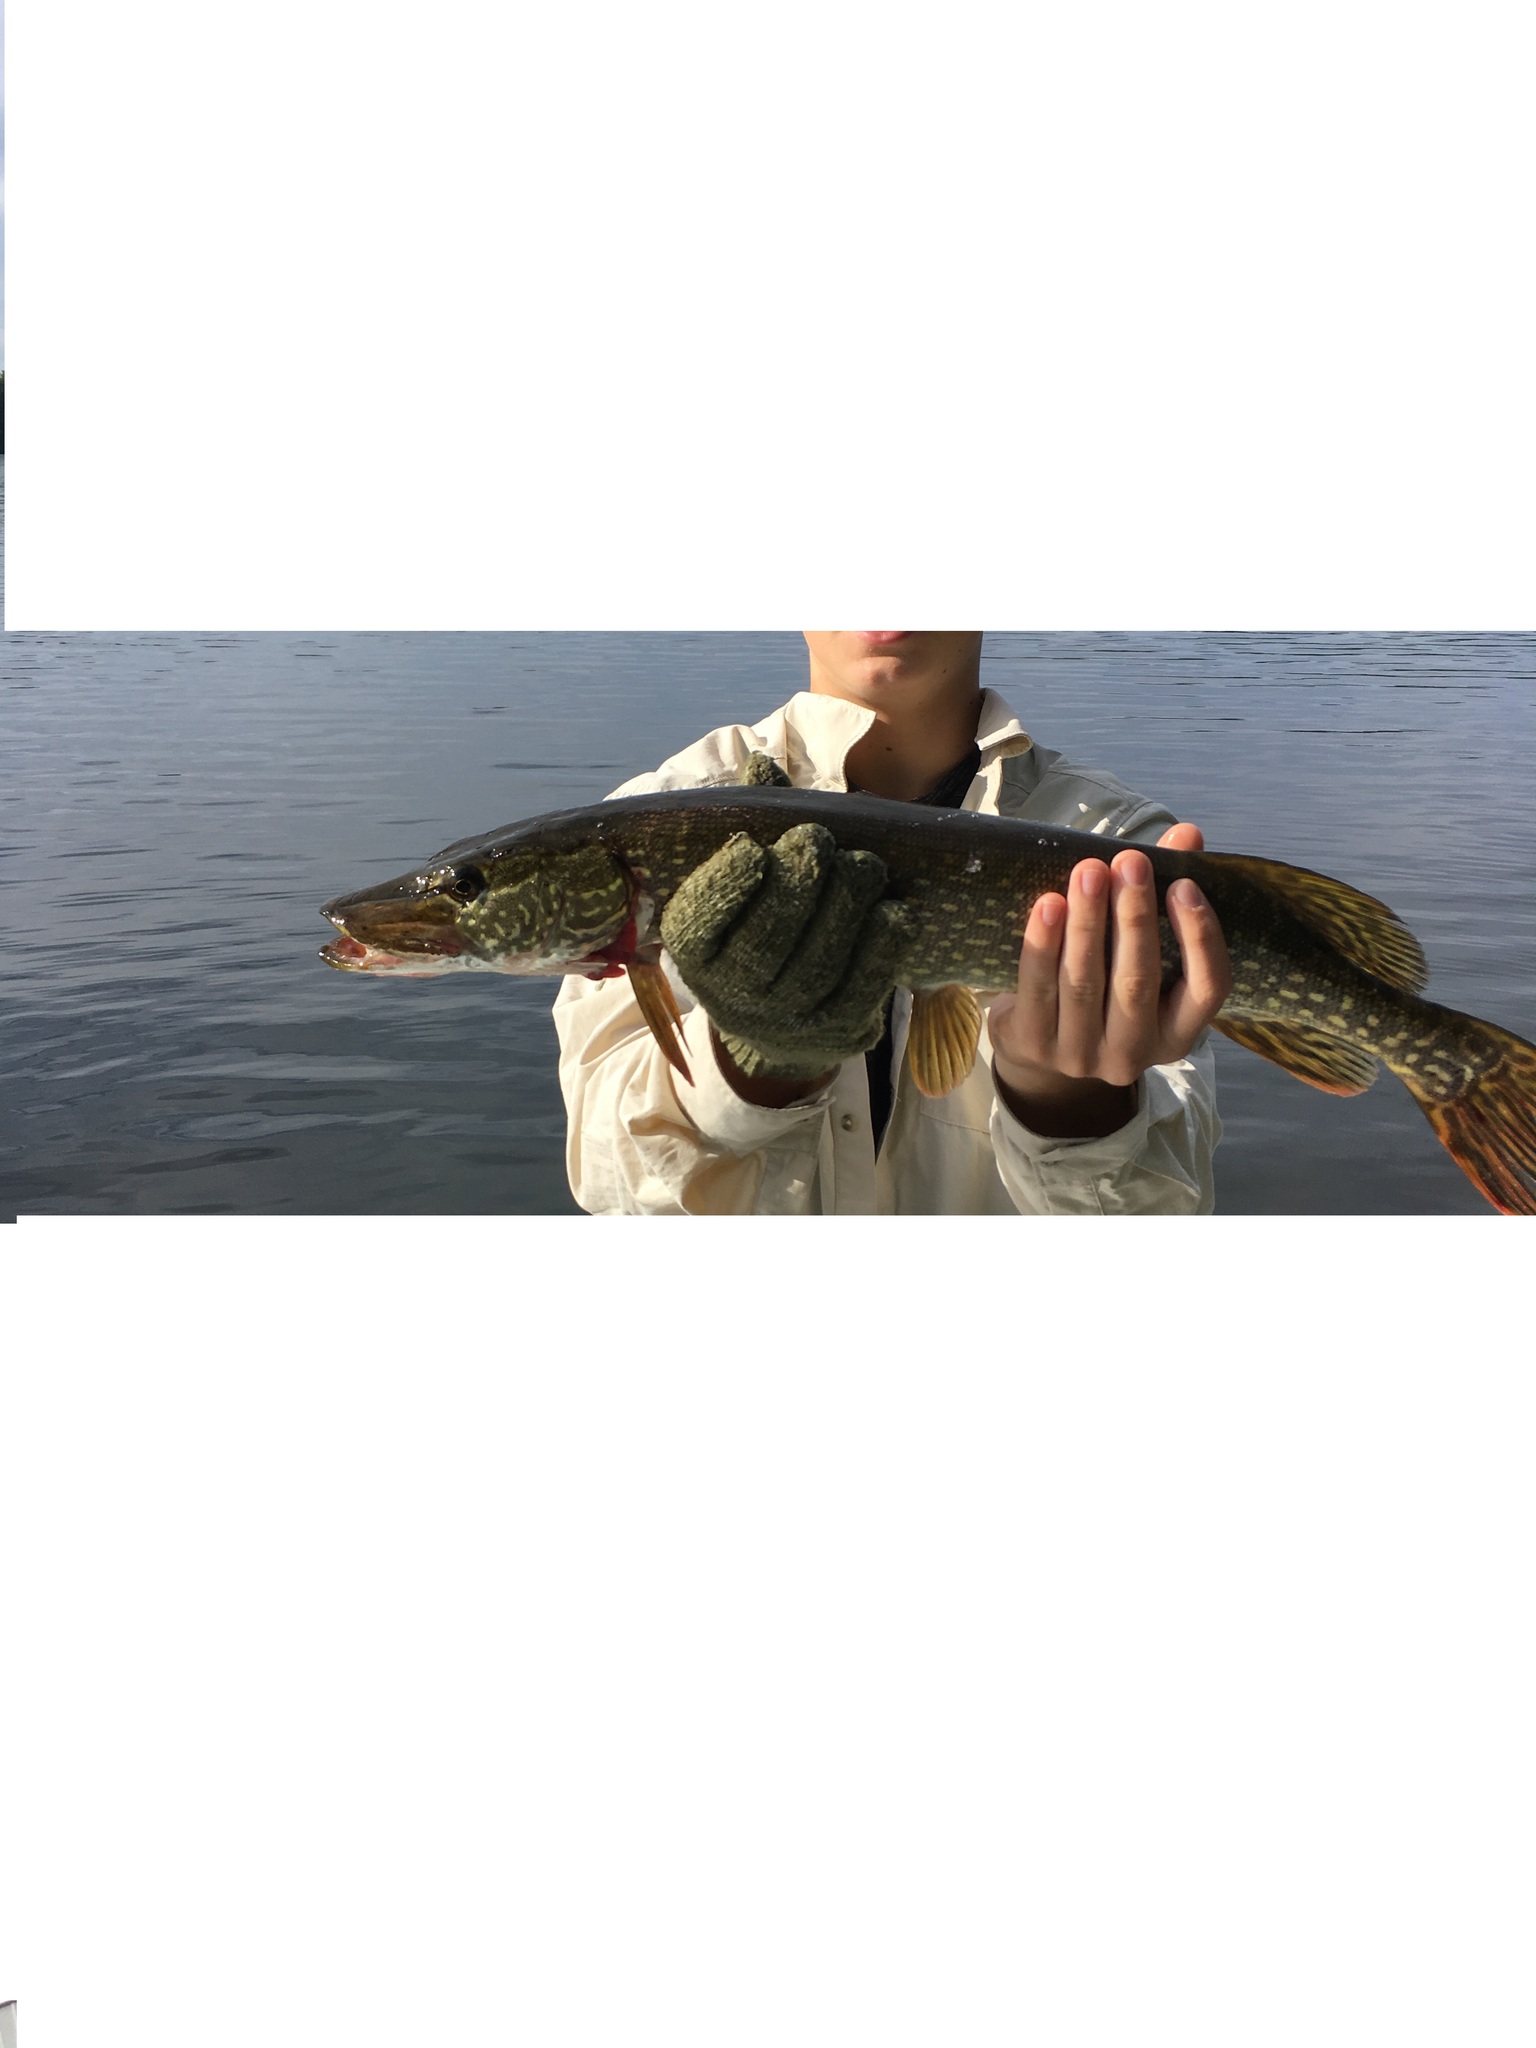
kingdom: Animalia
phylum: Chordata
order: Esociformes
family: Esocidae
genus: Esox
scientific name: Esox lucius
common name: Northern pike
